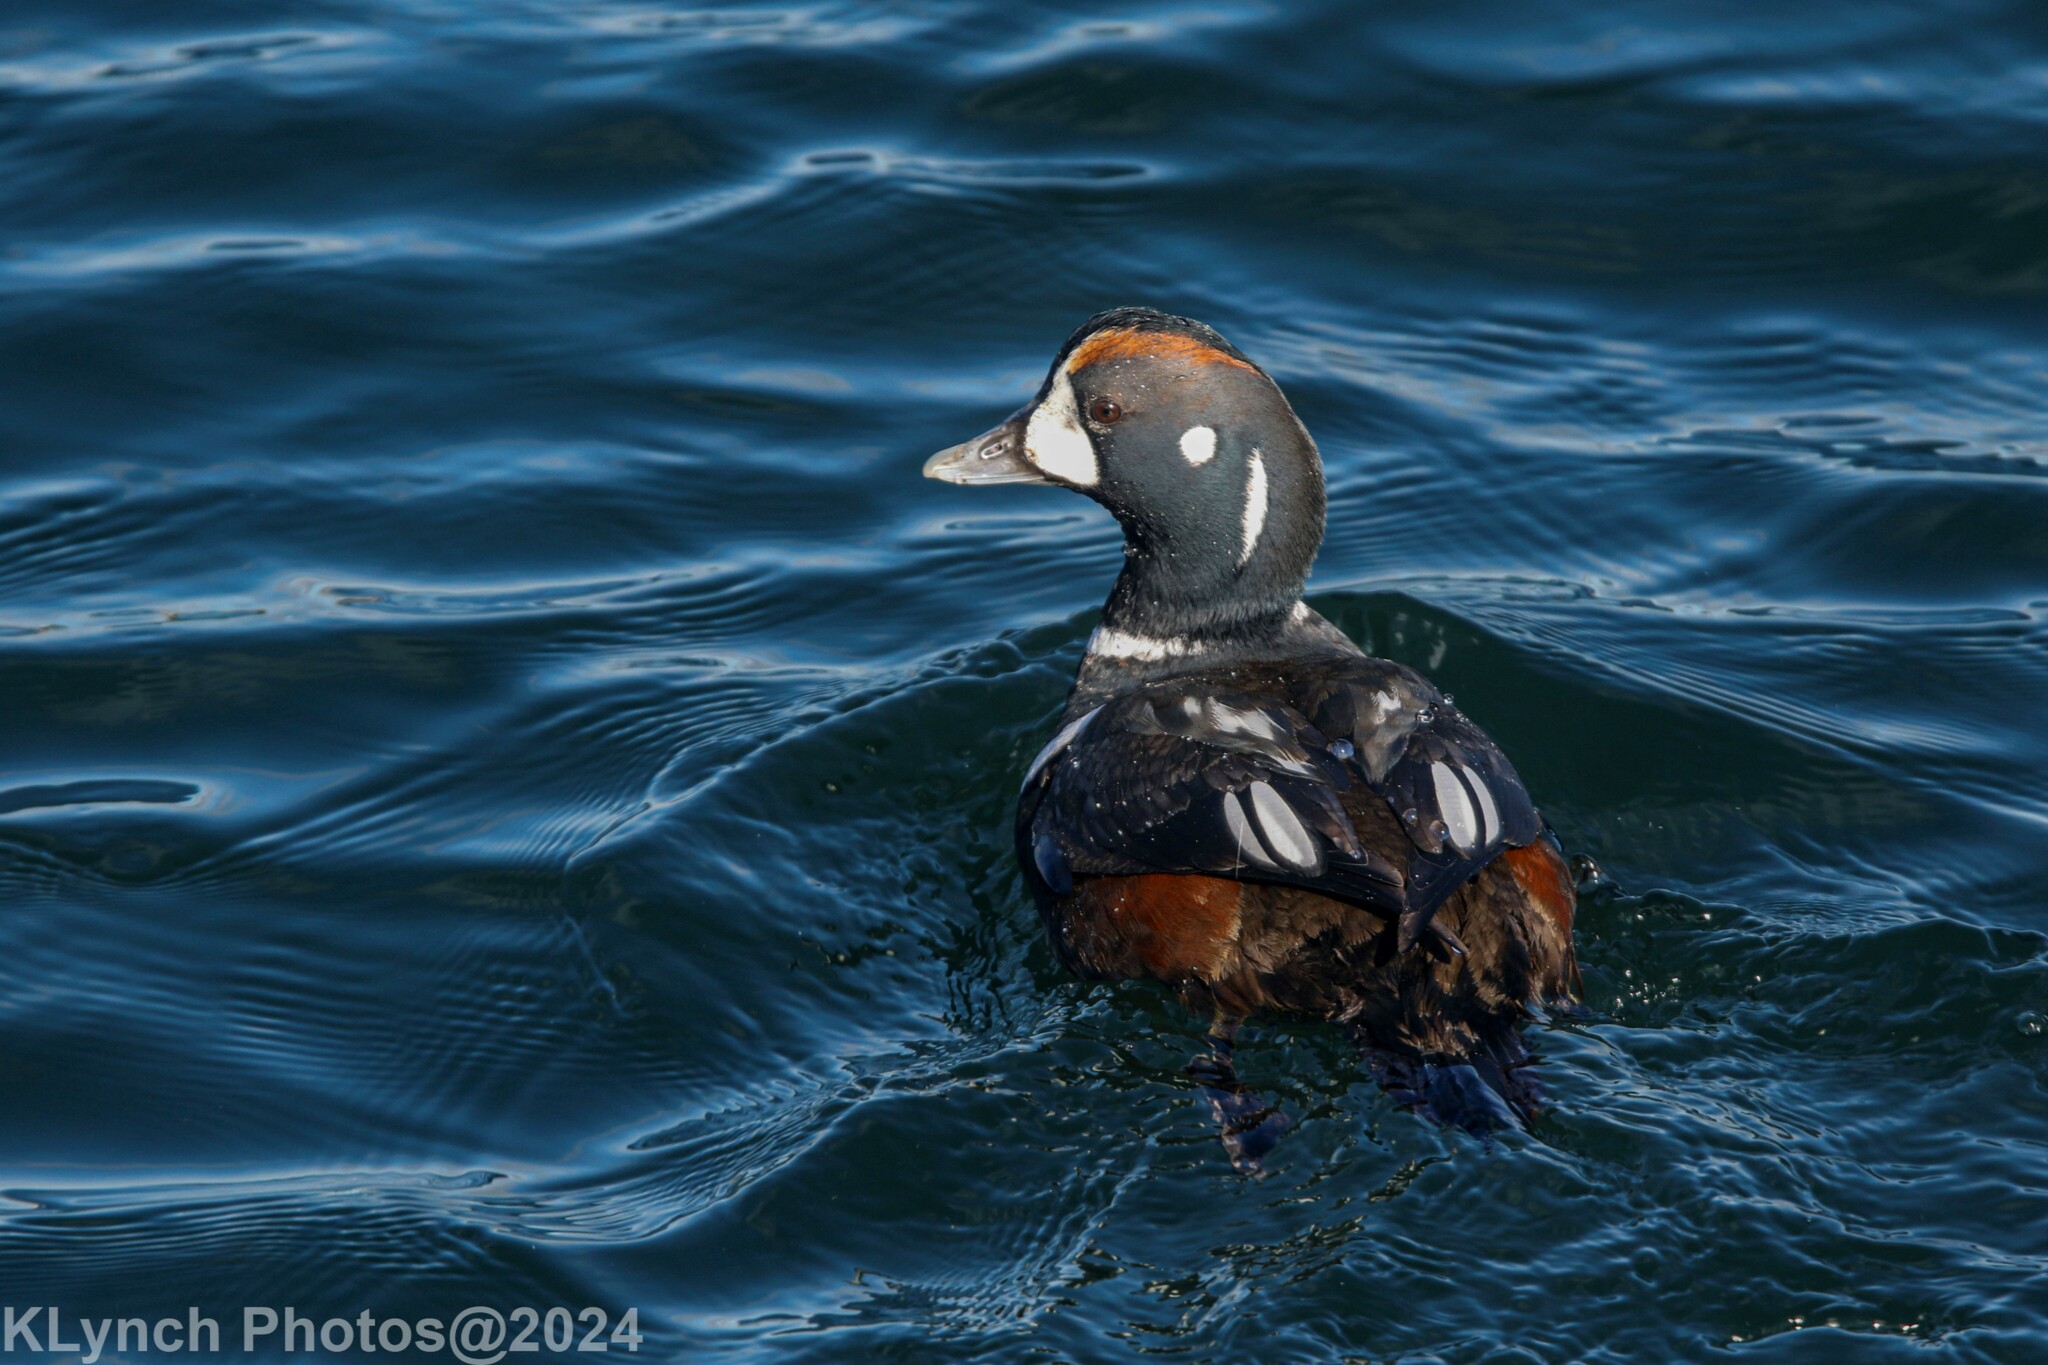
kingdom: Animalia
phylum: Chordata
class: Aves
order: Anseriformes
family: Anatidae
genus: Histrionicus
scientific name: Histrionicus histrionicus
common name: Harlequin duck
